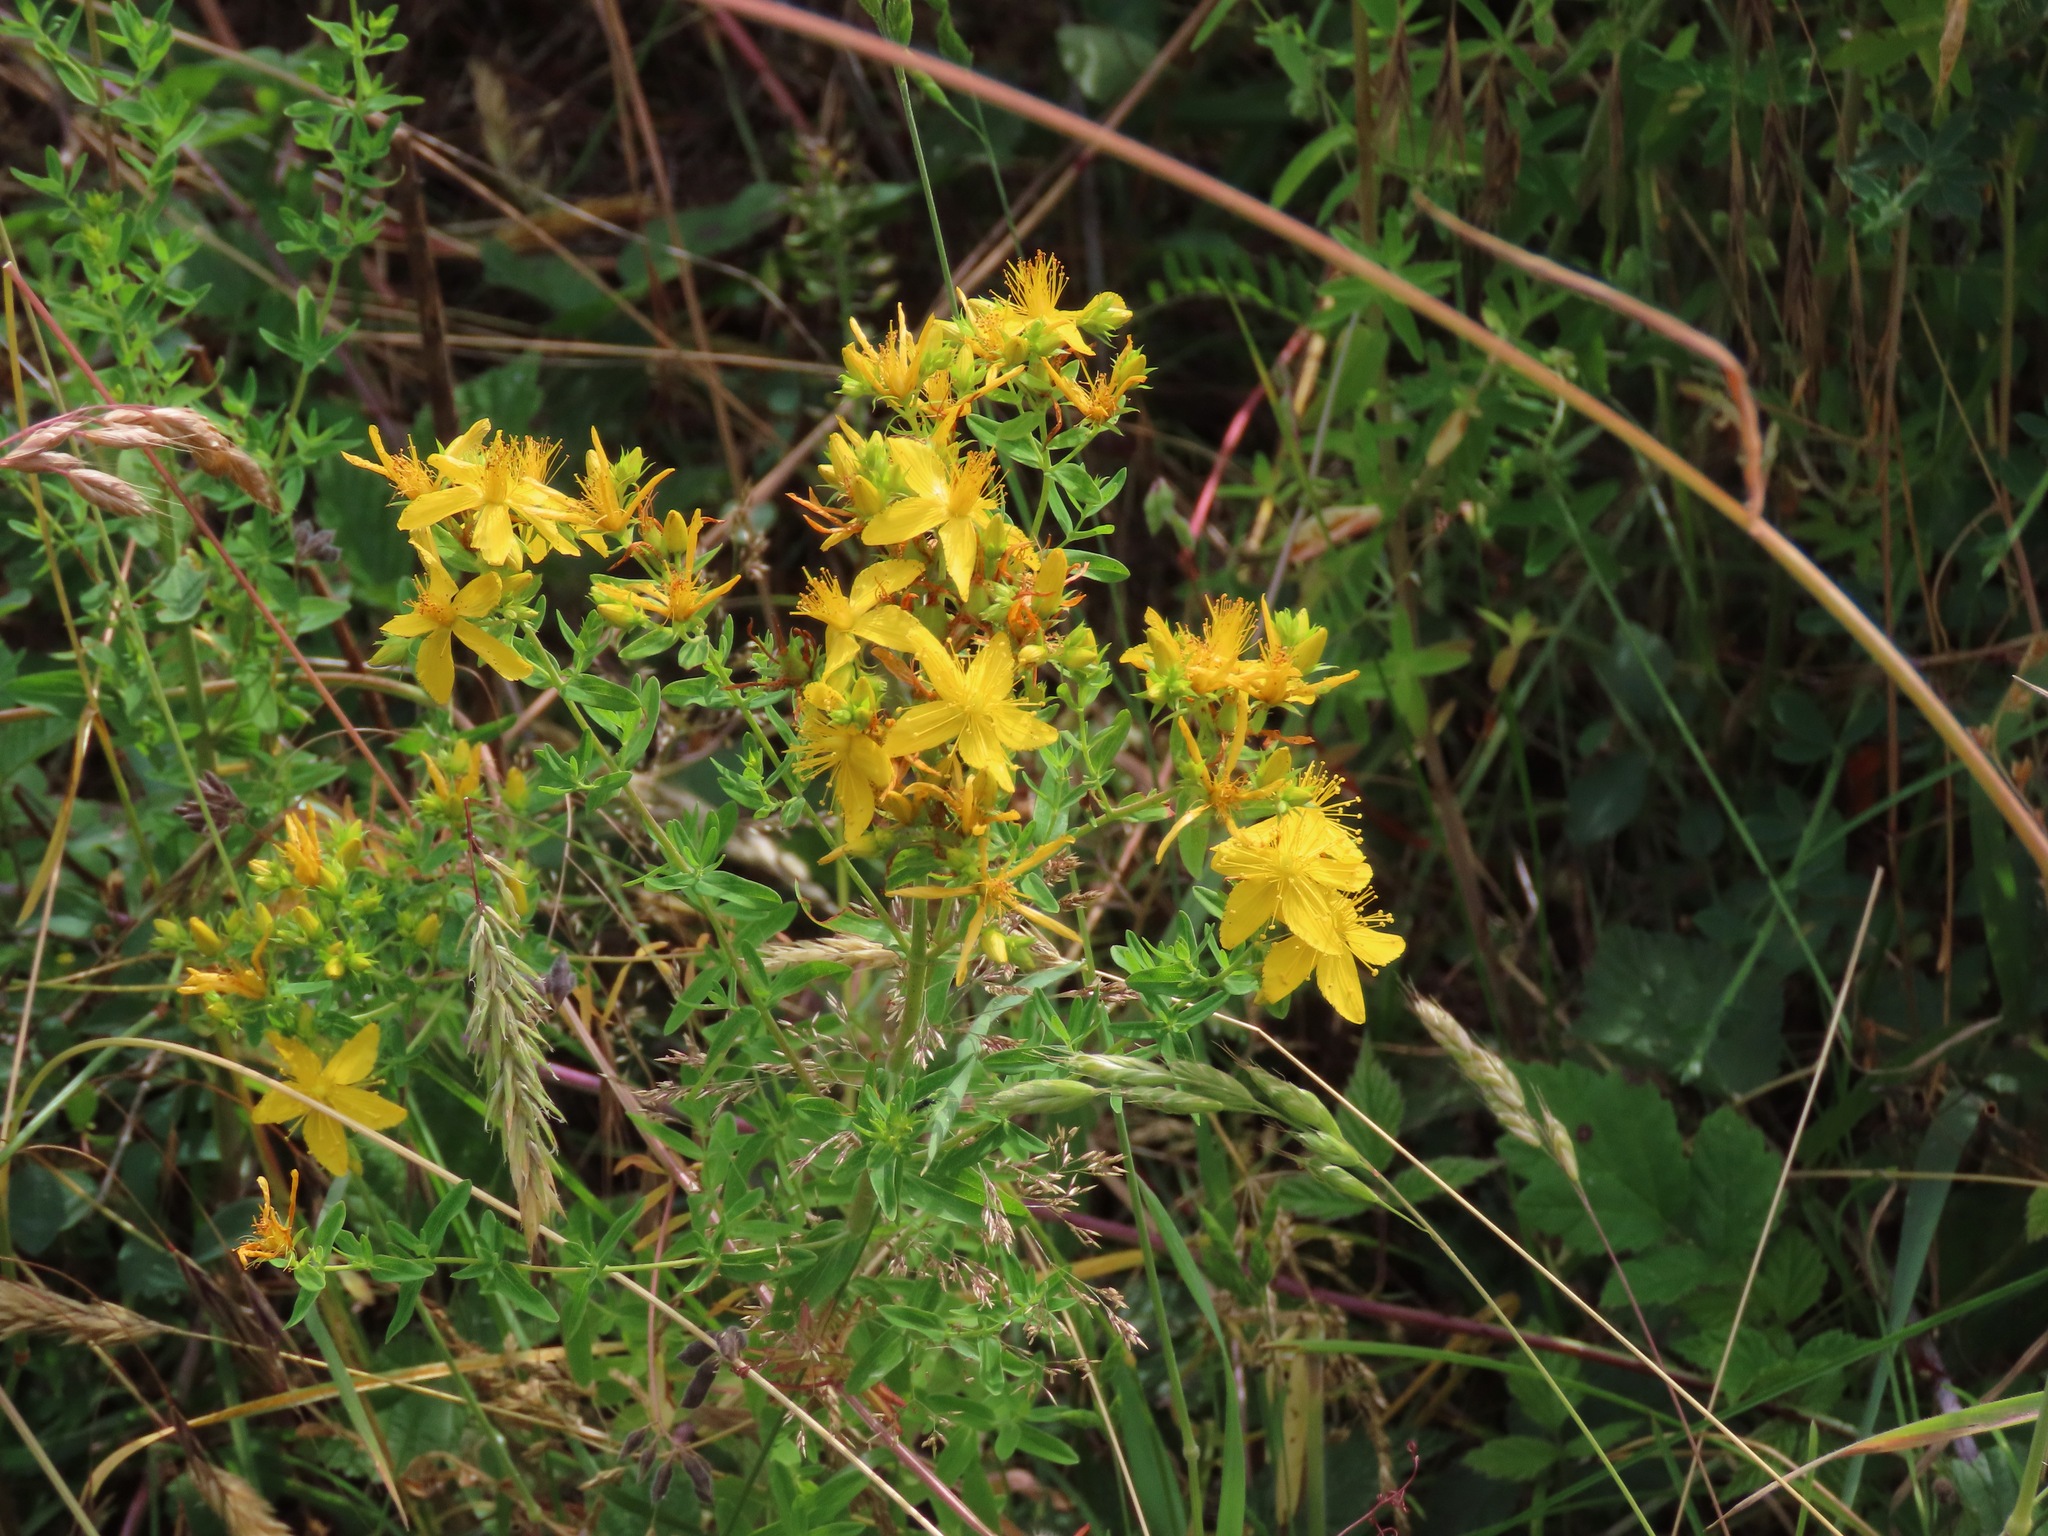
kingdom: Plantae
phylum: Tracheophyta
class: Magnoliopsida
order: Malpighiales
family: Hypericaceae
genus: Hypericum
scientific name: Hypericum perforatum
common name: Common st. johnswort
